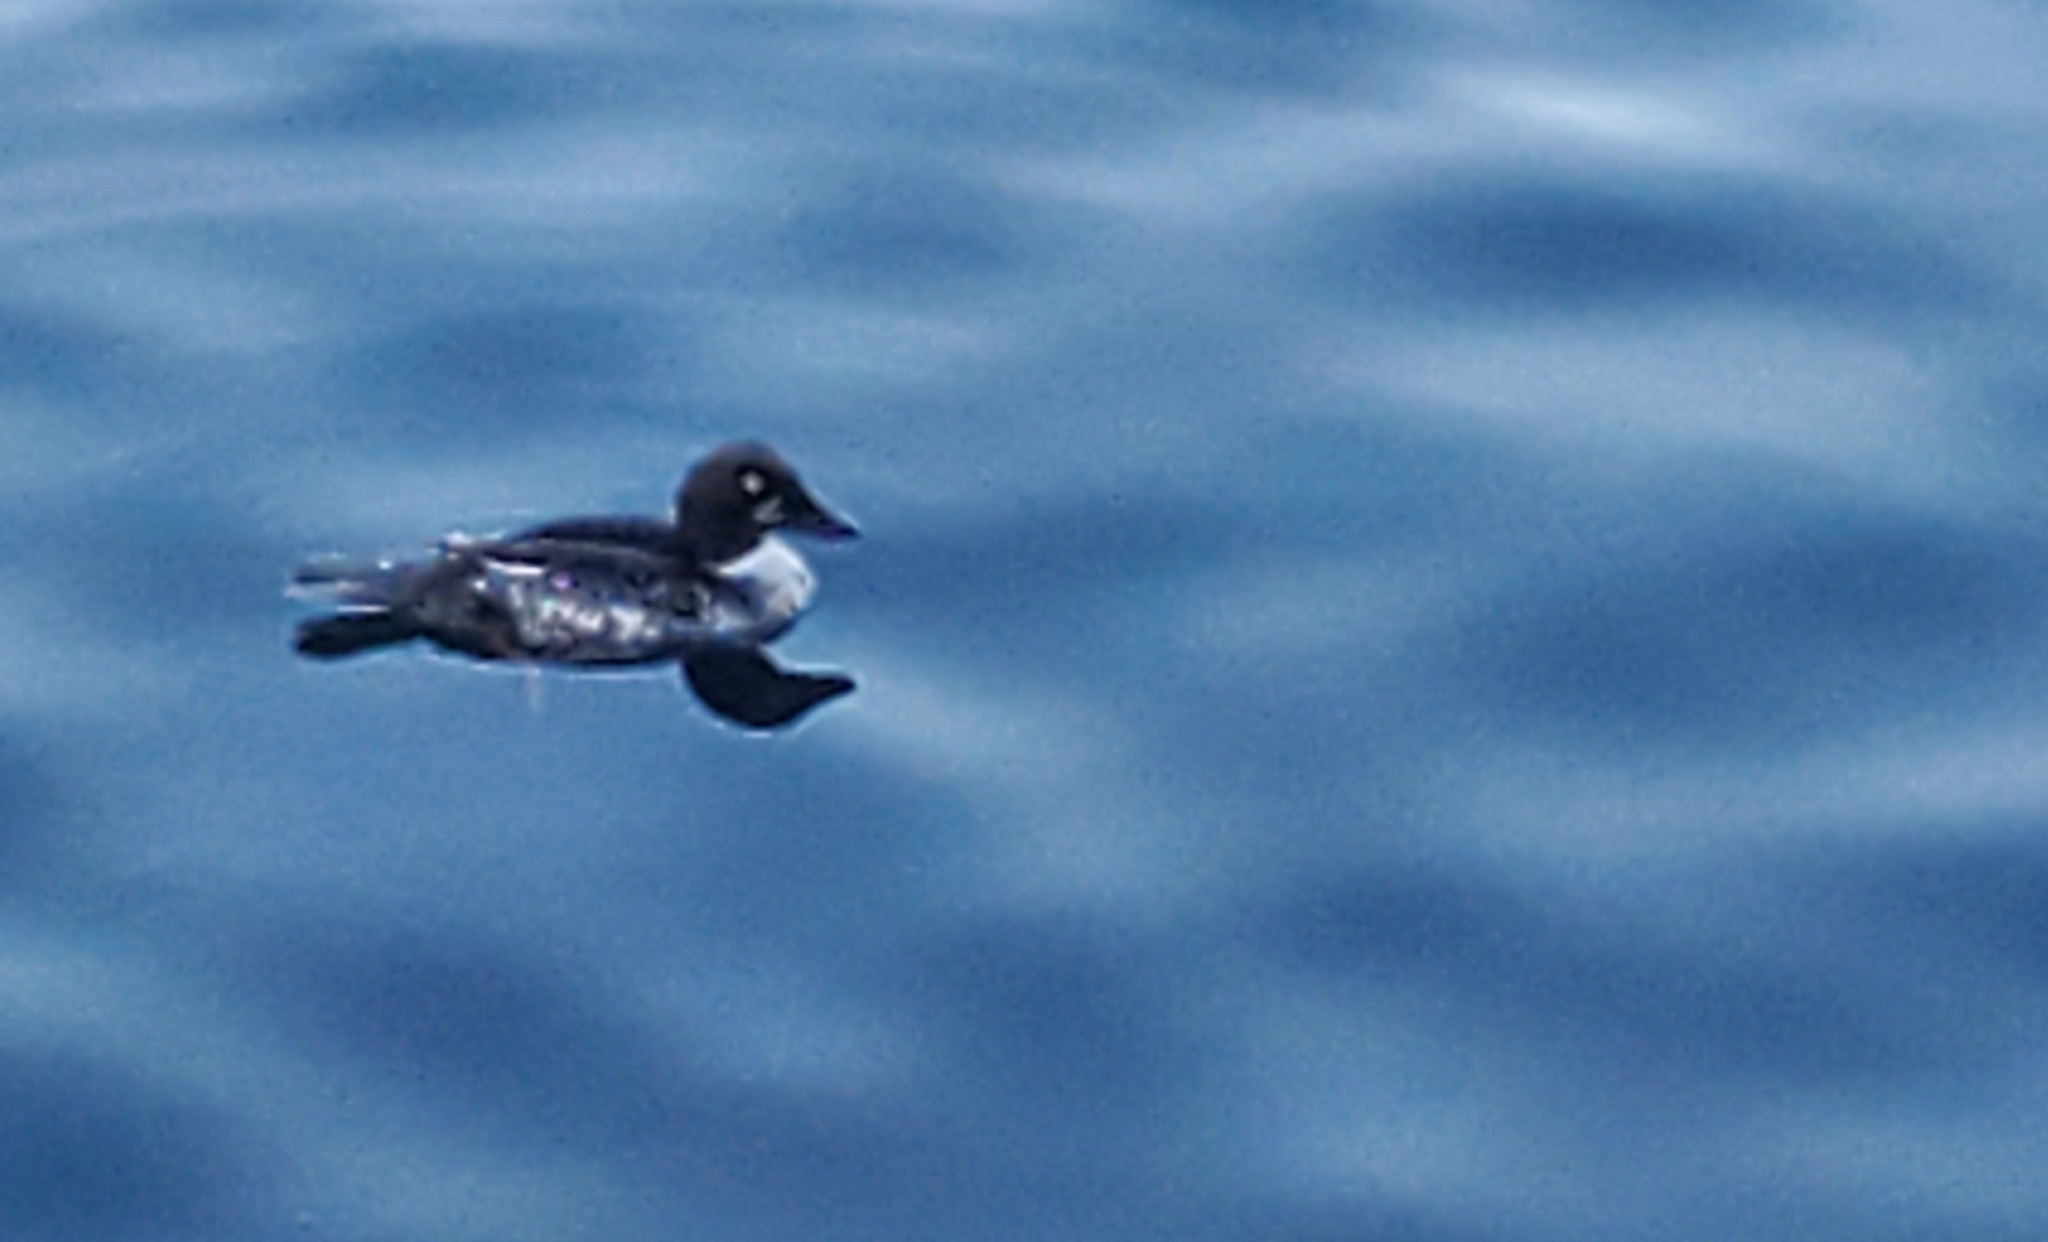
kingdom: Animalia
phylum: Chordata
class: Aves
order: Anseriformes
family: Anatidae
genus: Bucephala
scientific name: Bucephala clangula
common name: Common goldeneye
